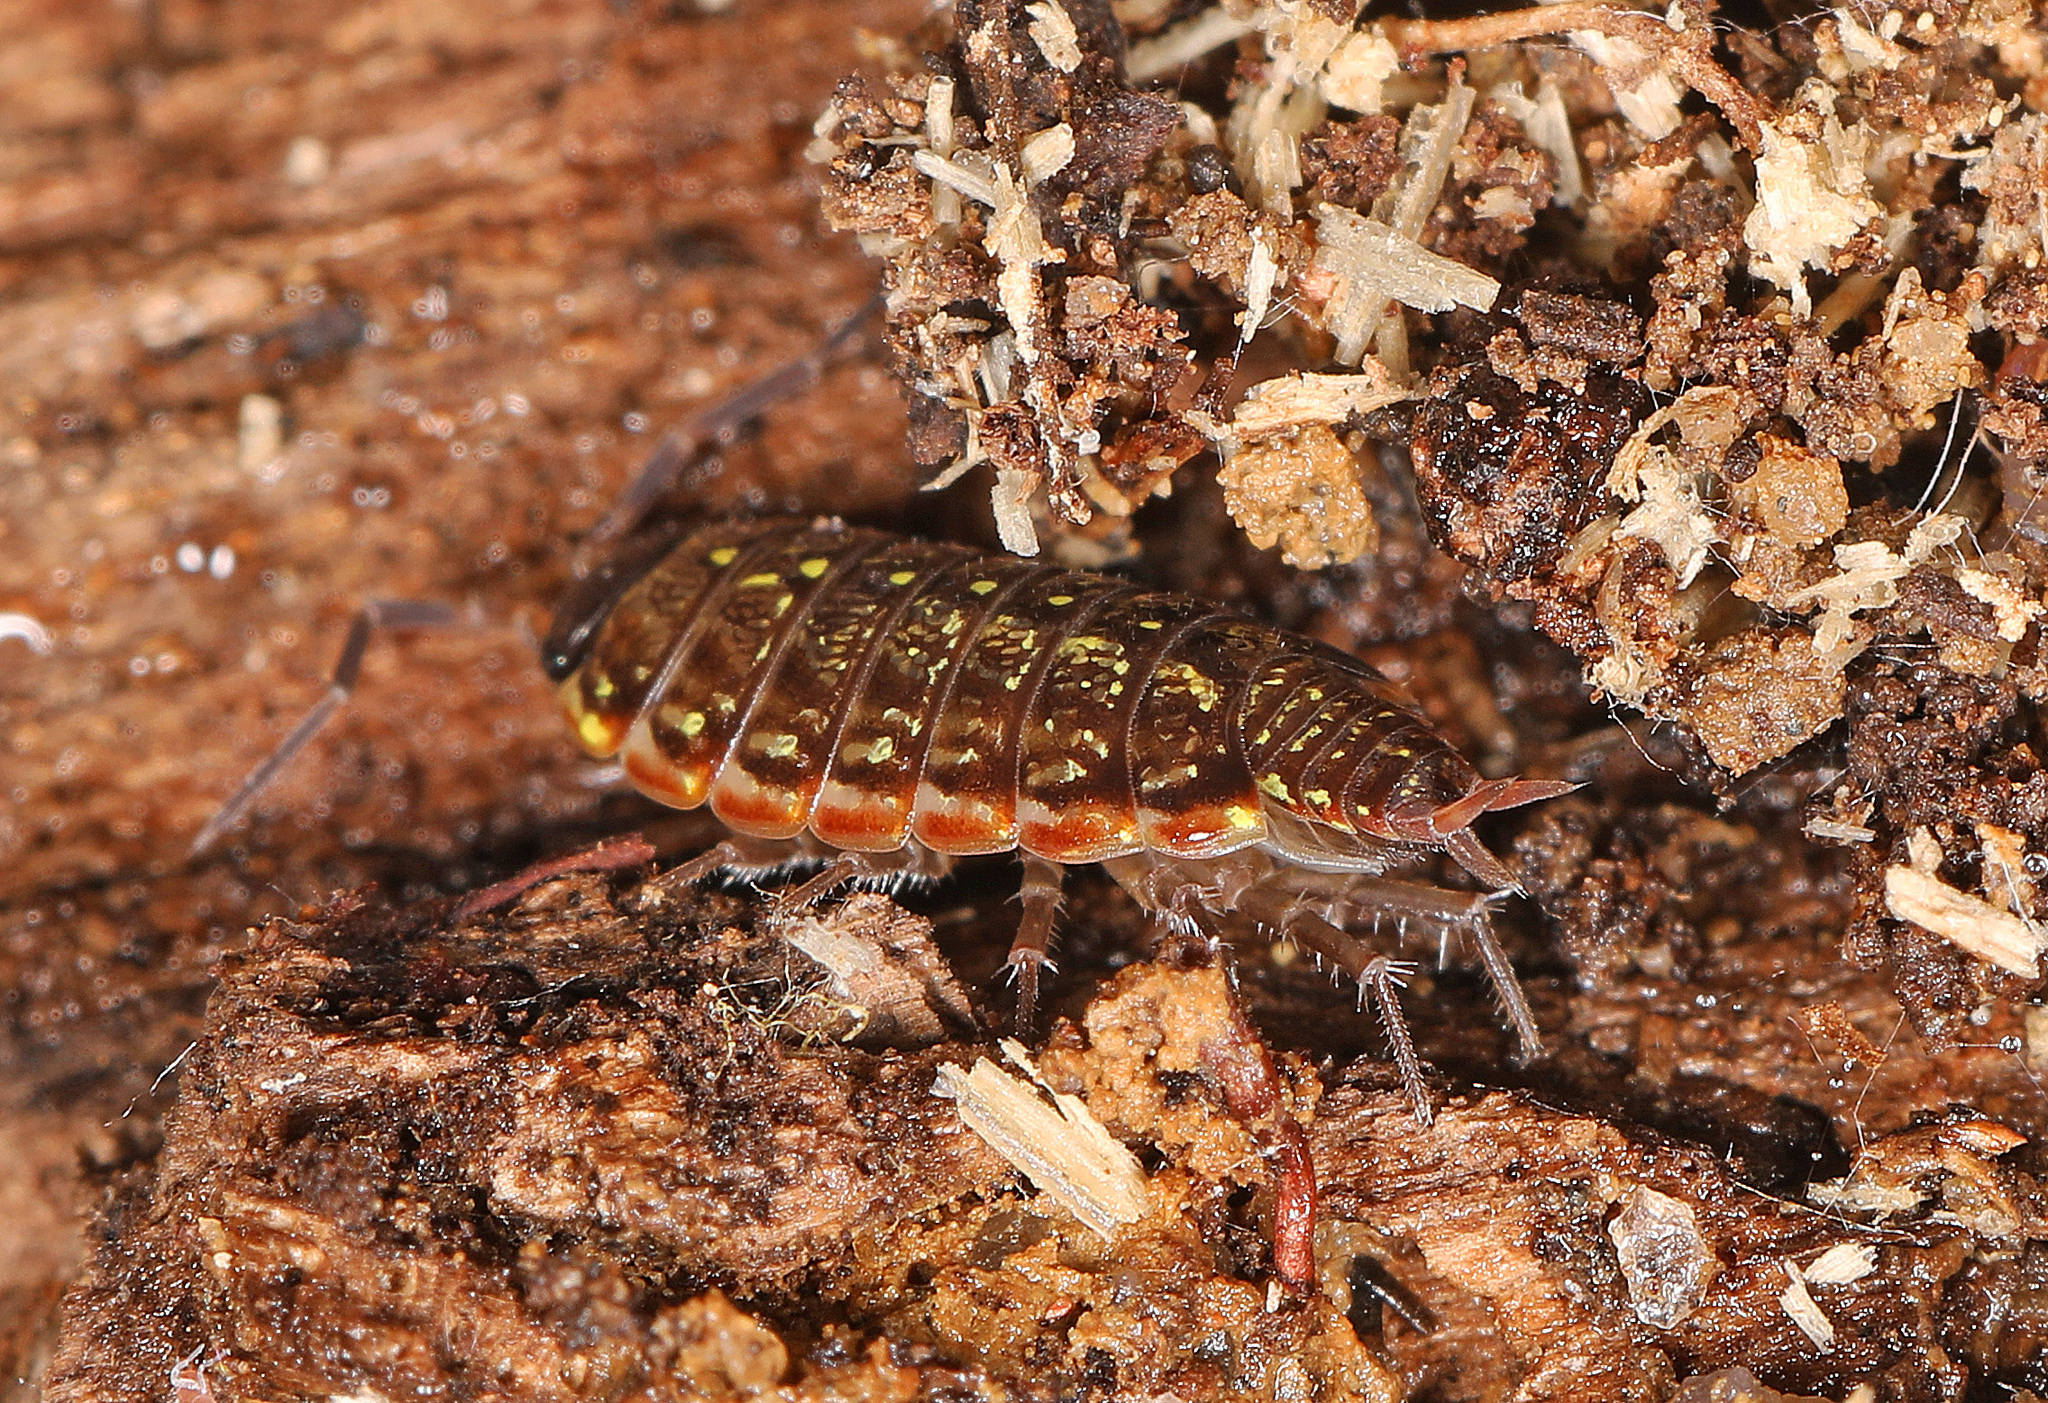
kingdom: Animalia
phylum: Arthropoda
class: Malacostraca
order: Isopoda
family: Philosciidae
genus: Philoscia
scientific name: Philoscia muscorum
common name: Common striped woodlouse
